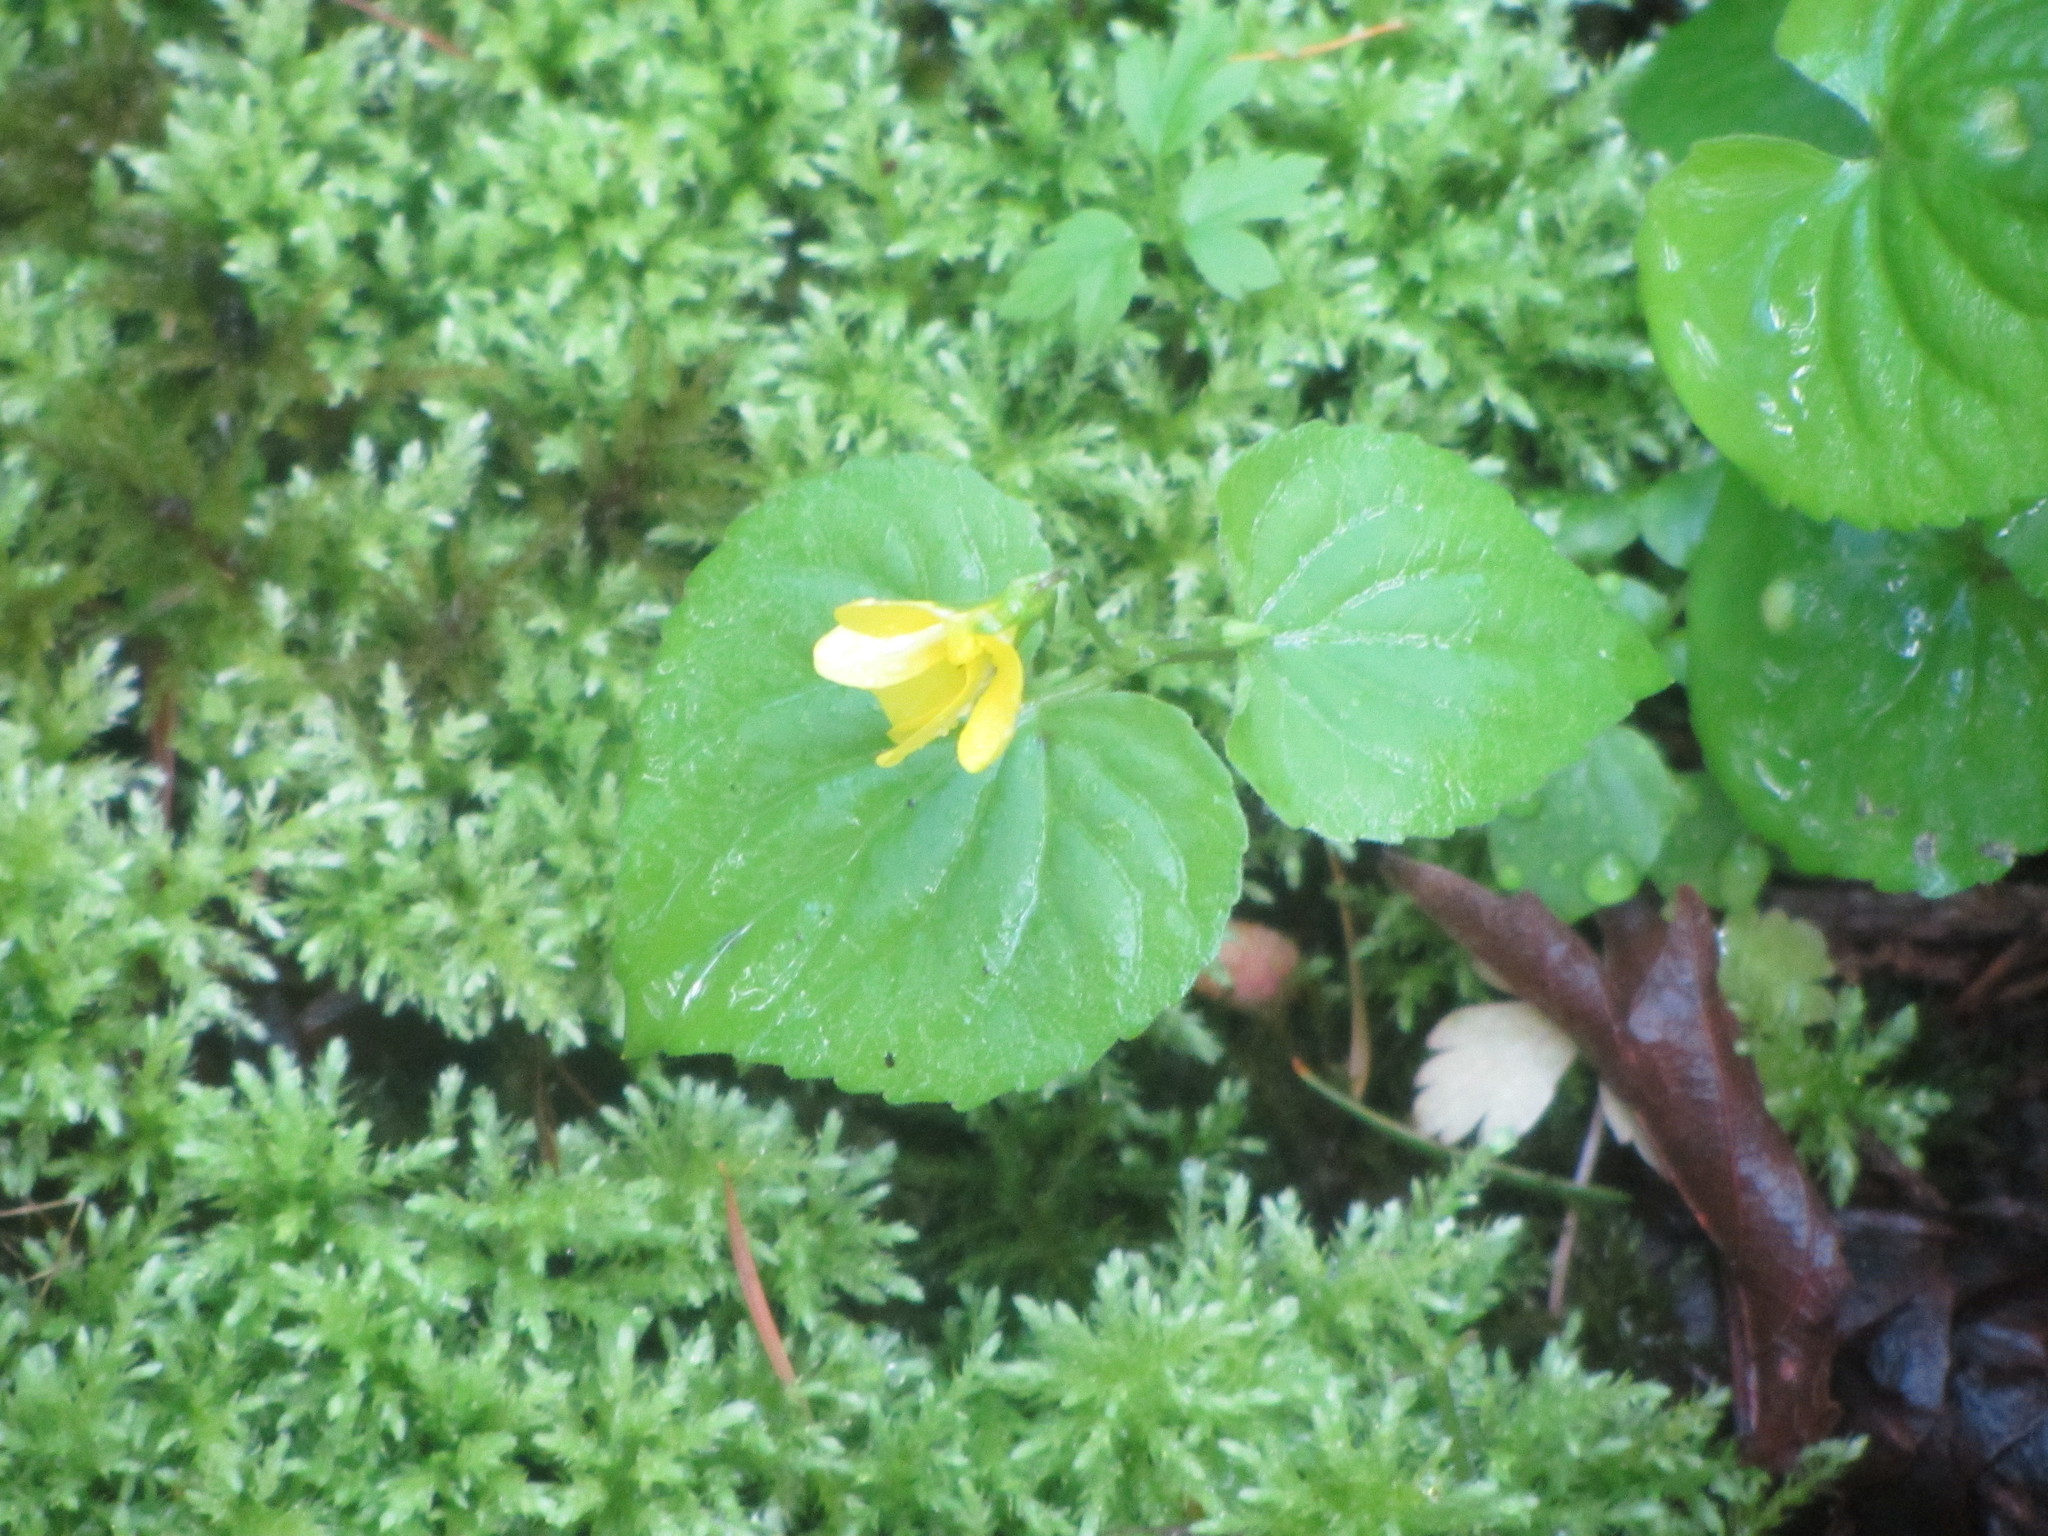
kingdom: Plantae
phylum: Tracheophyta
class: Magnoliopsida
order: Malpighiales
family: Violaceae
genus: Viola
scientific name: Viola glabella
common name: Stream violet
